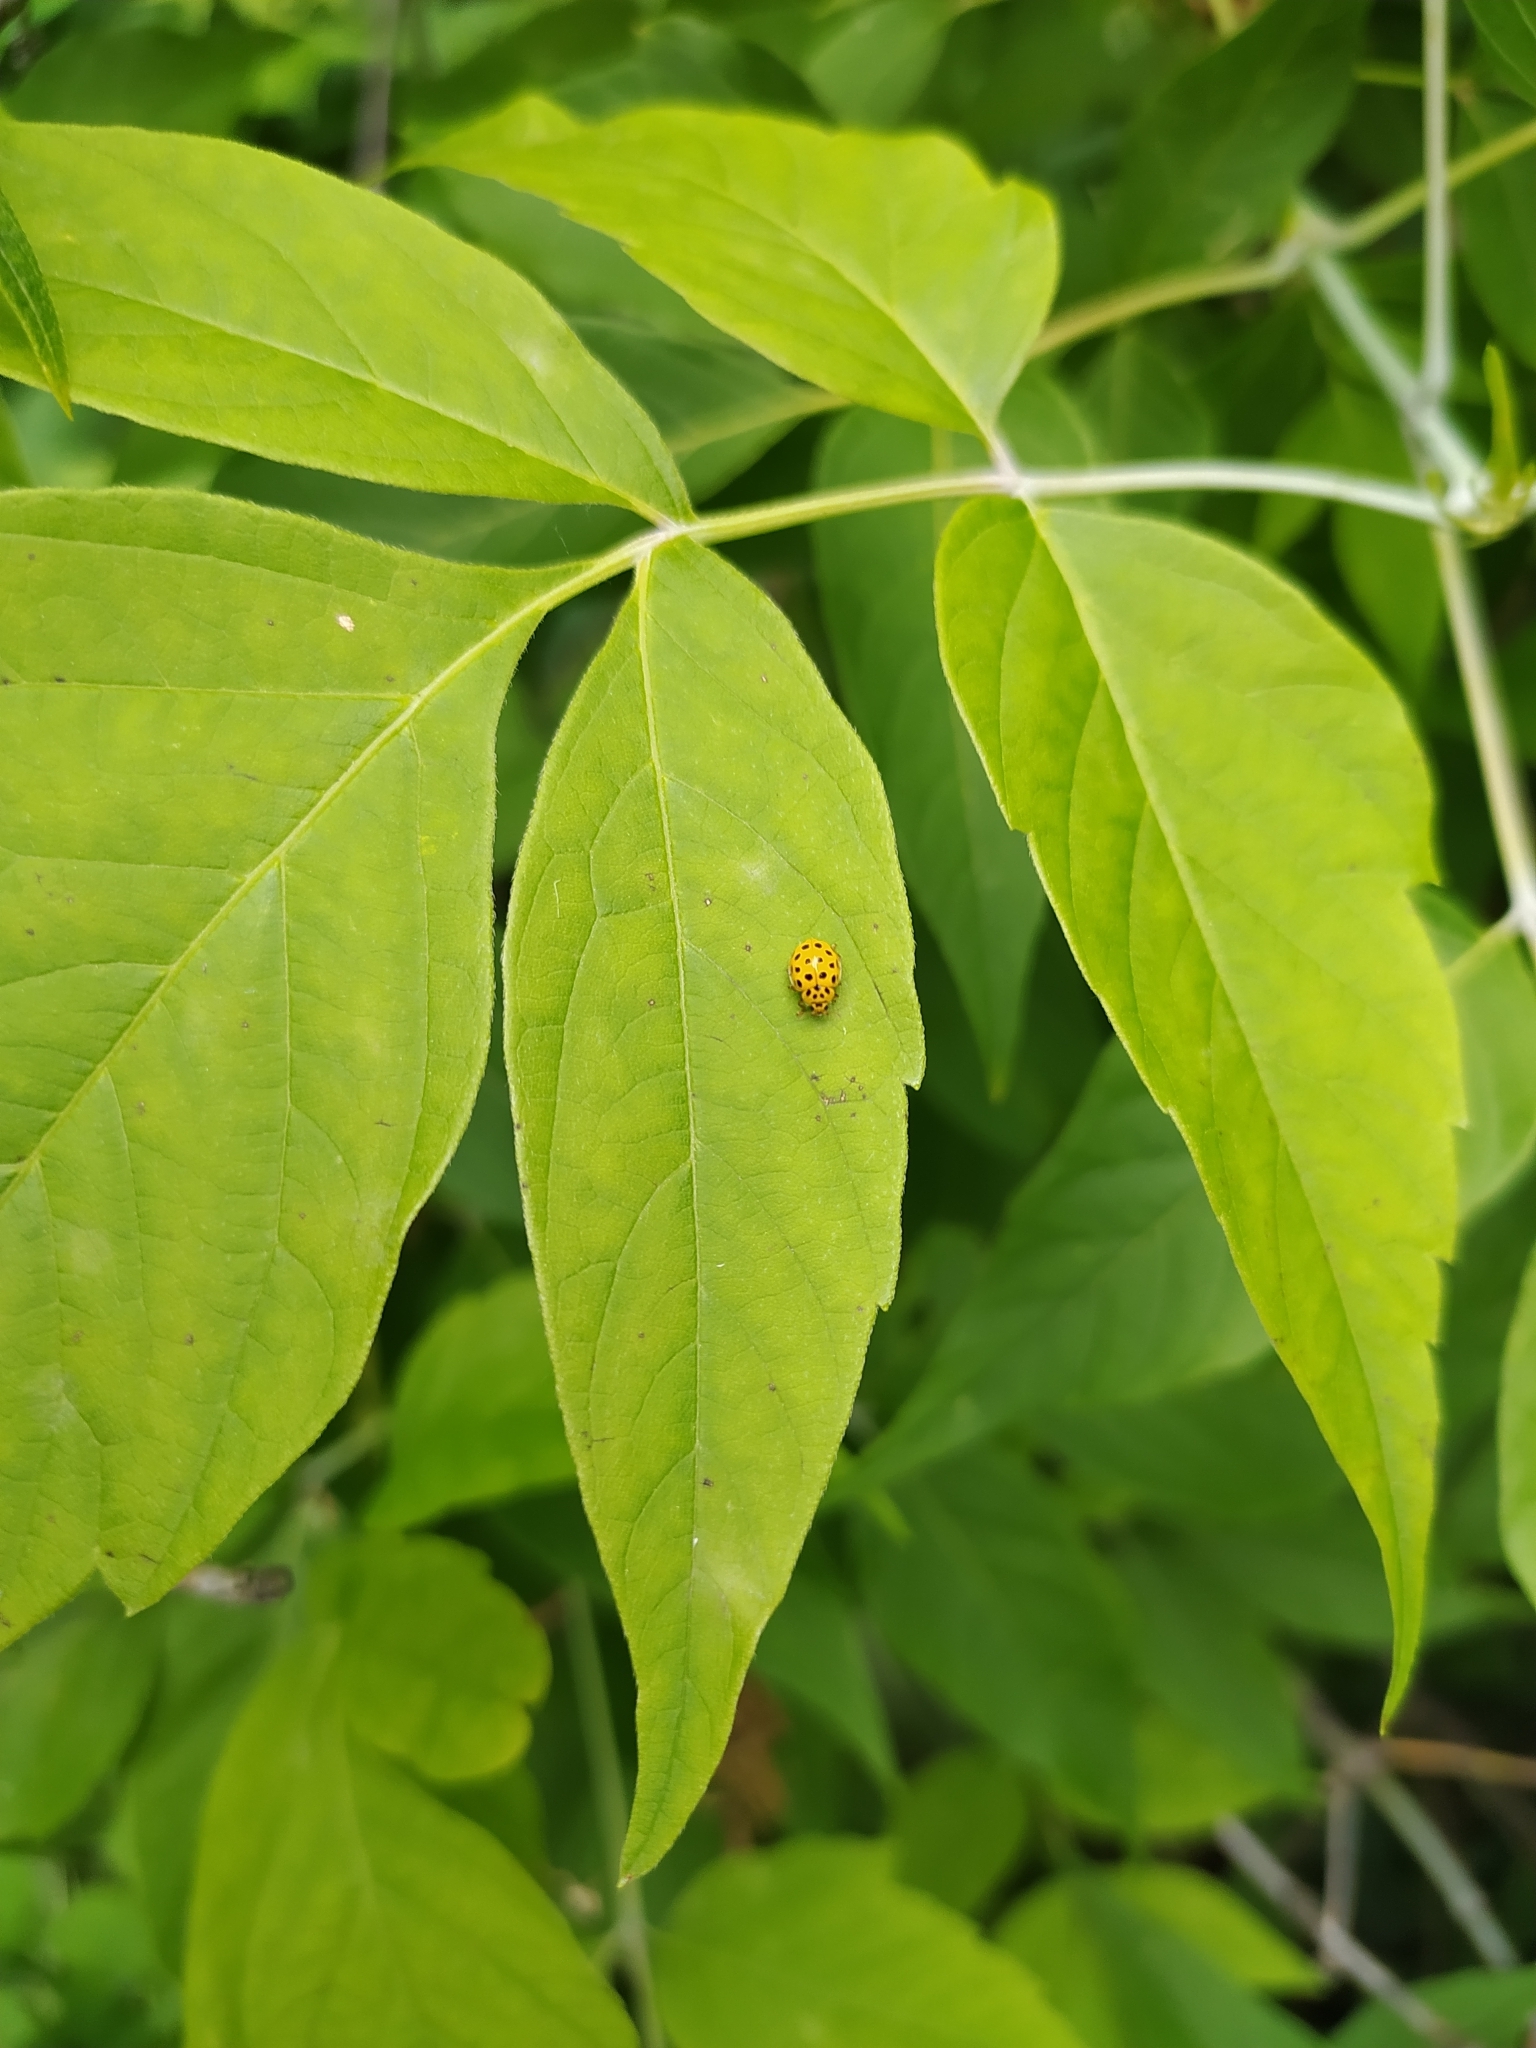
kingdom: Animalia
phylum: Arthropoda
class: Insecta
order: Coleoptera
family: Coccinellidae
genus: Psyllobora
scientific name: Psyllobora vigintiduopunctata
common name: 22-spot ladybird
